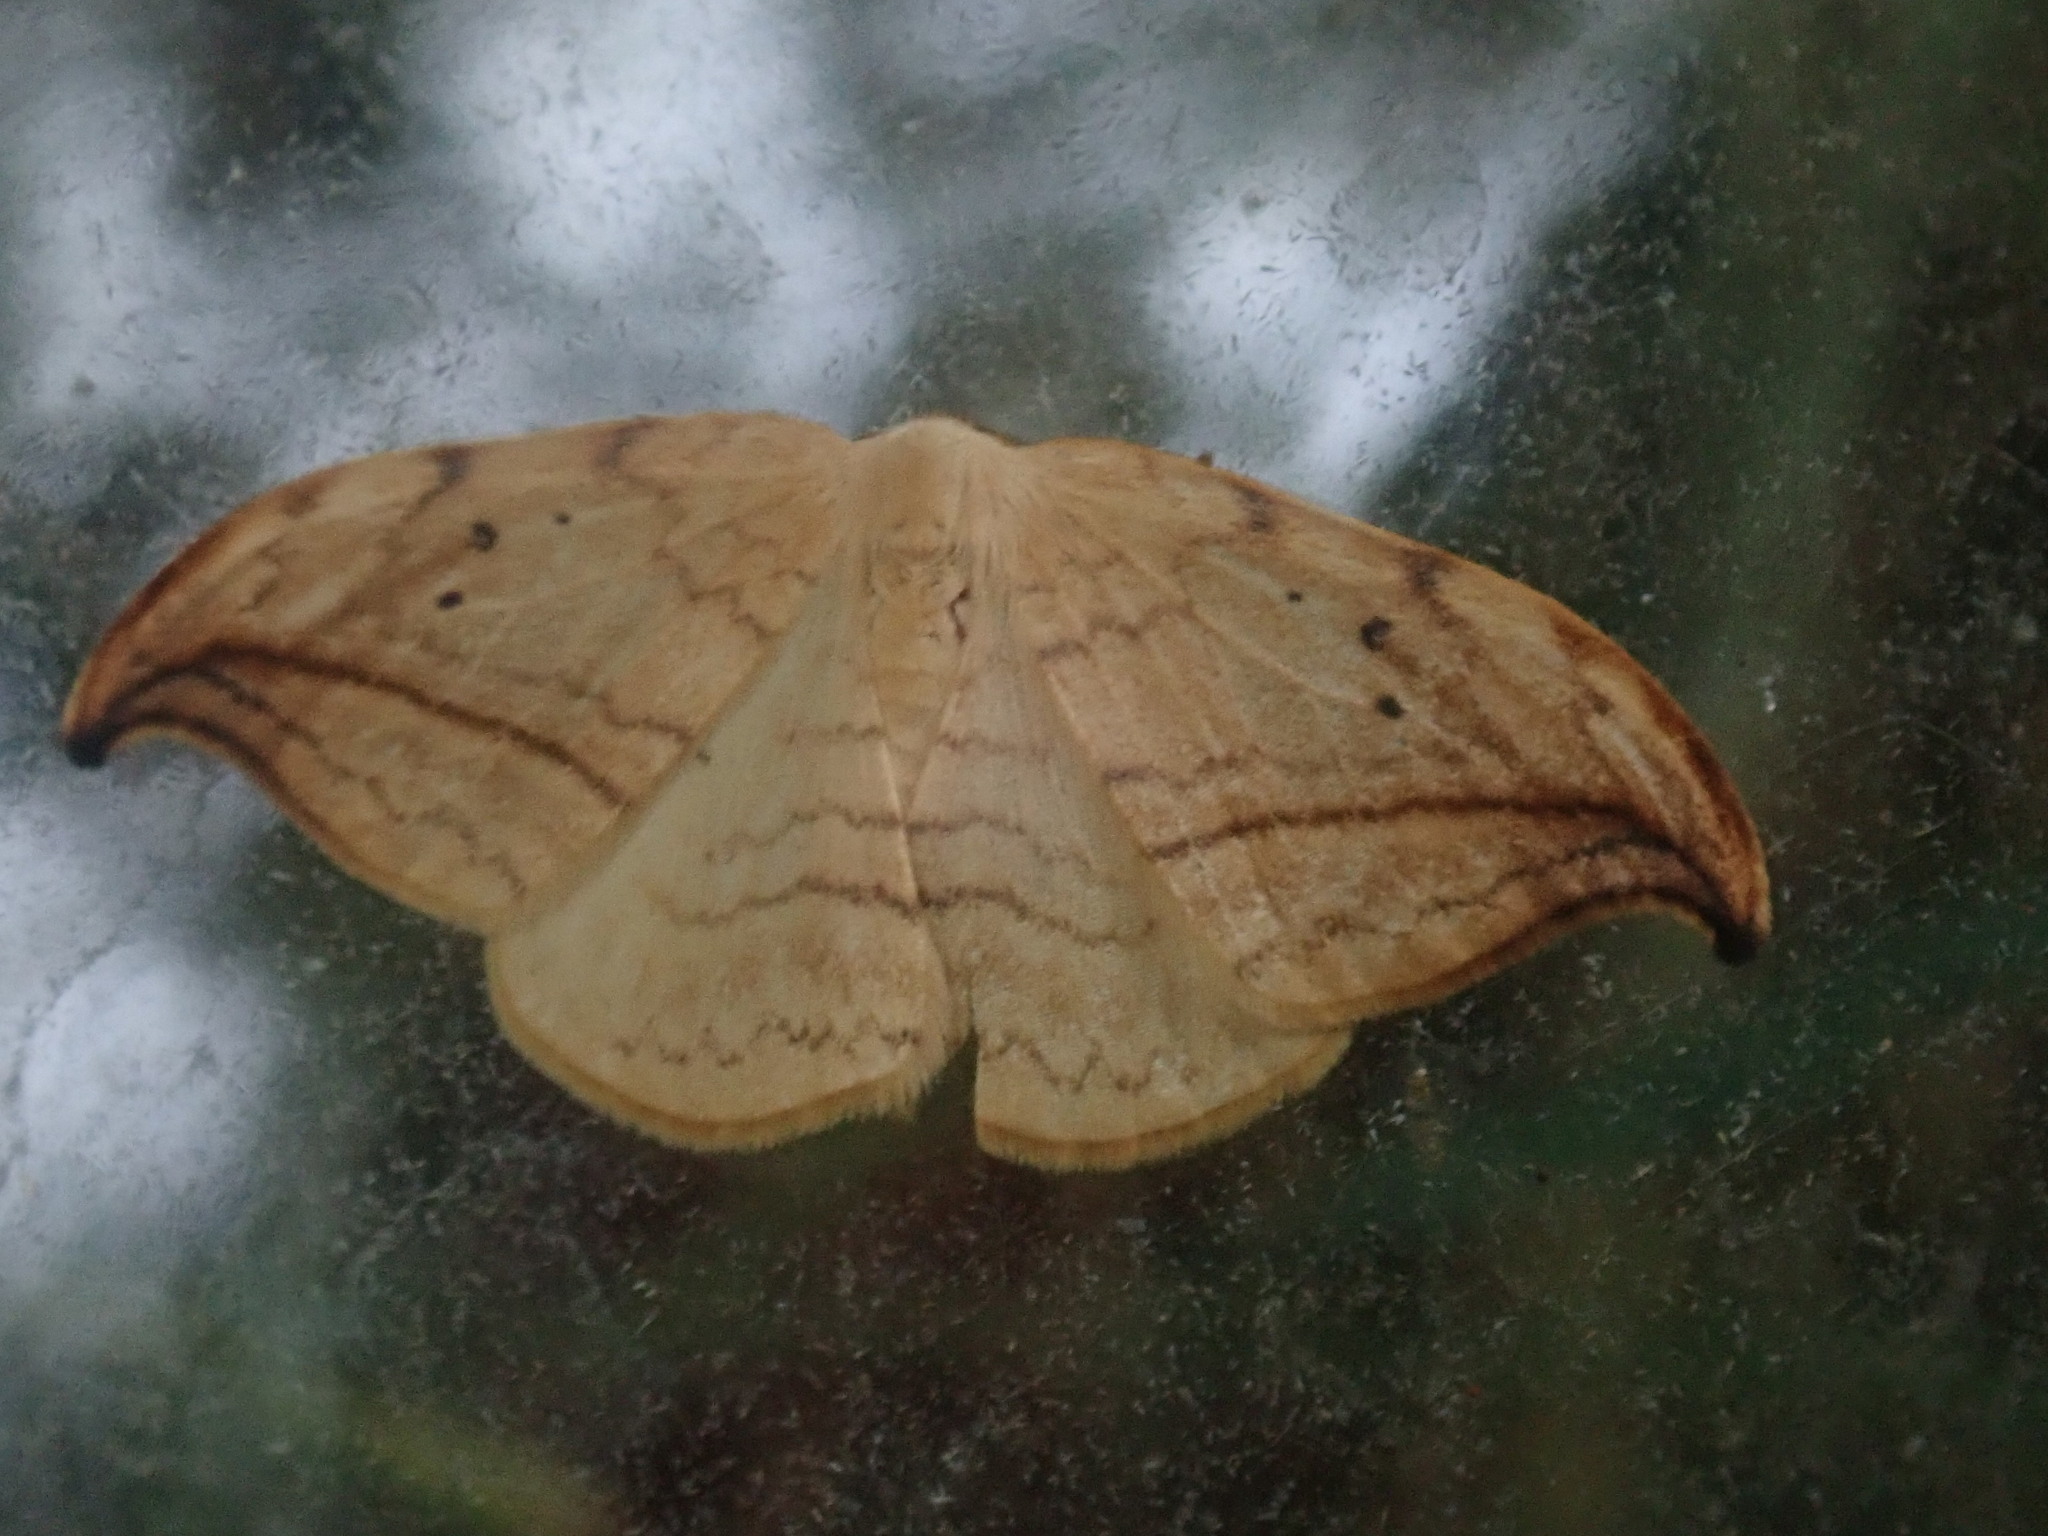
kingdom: Animalia
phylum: Arthropoda
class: Insecta
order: Lepidoptera
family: Drepanidae
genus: Drepana
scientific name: Drepana arcuata
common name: Arched hooktip moth
